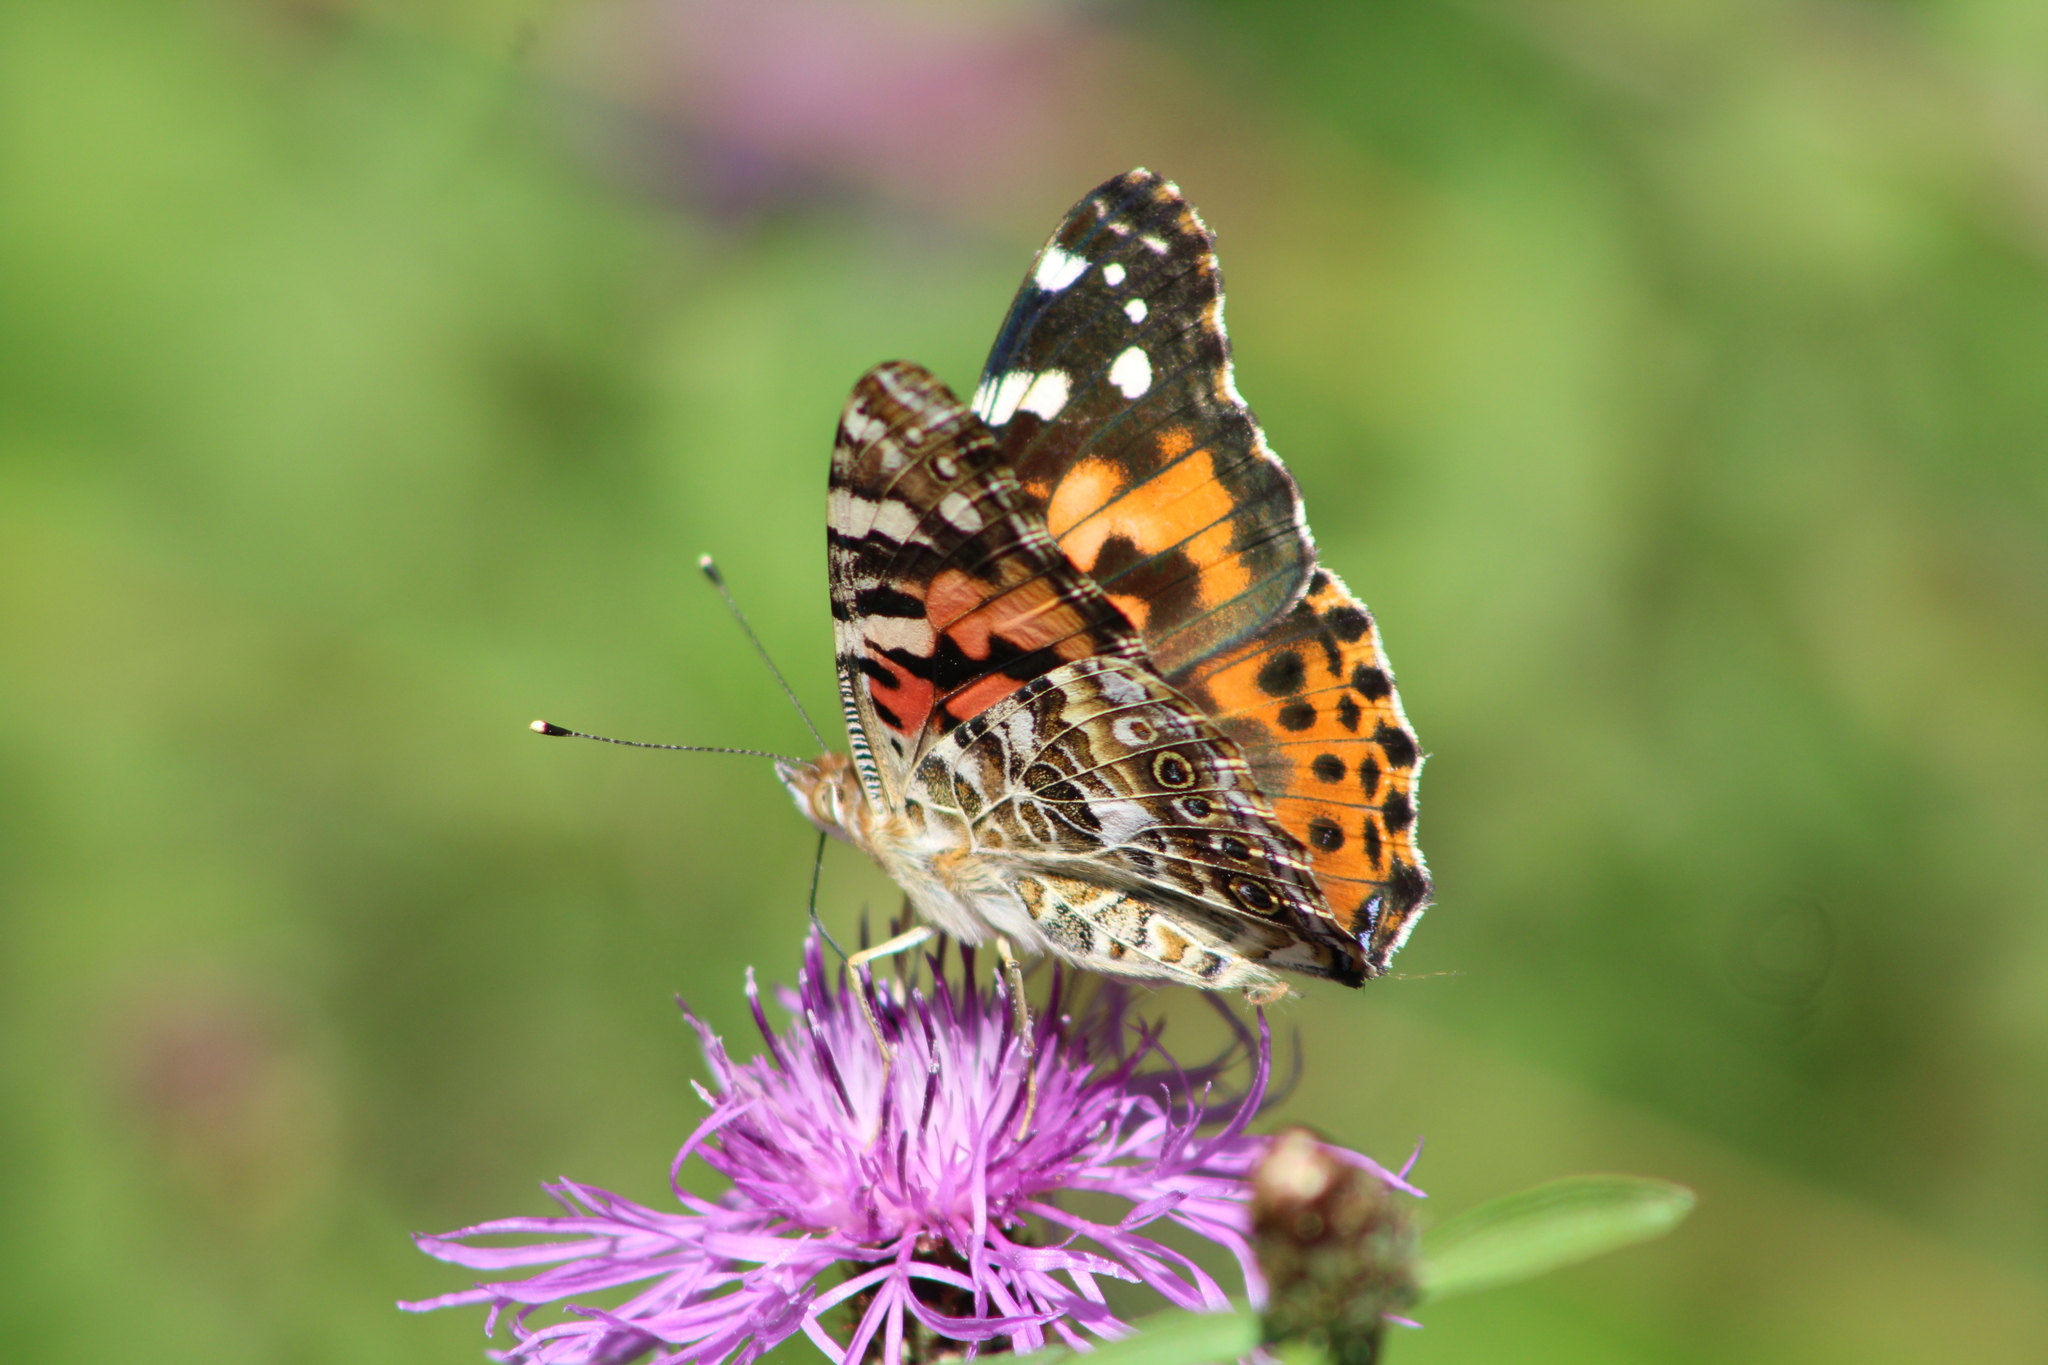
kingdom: Animalia
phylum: Arthropoda
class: Insecta
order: Lepidoptera
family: Nymphalidae
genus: Vanessa
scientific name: Vanessa cardui
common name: Painted lady
